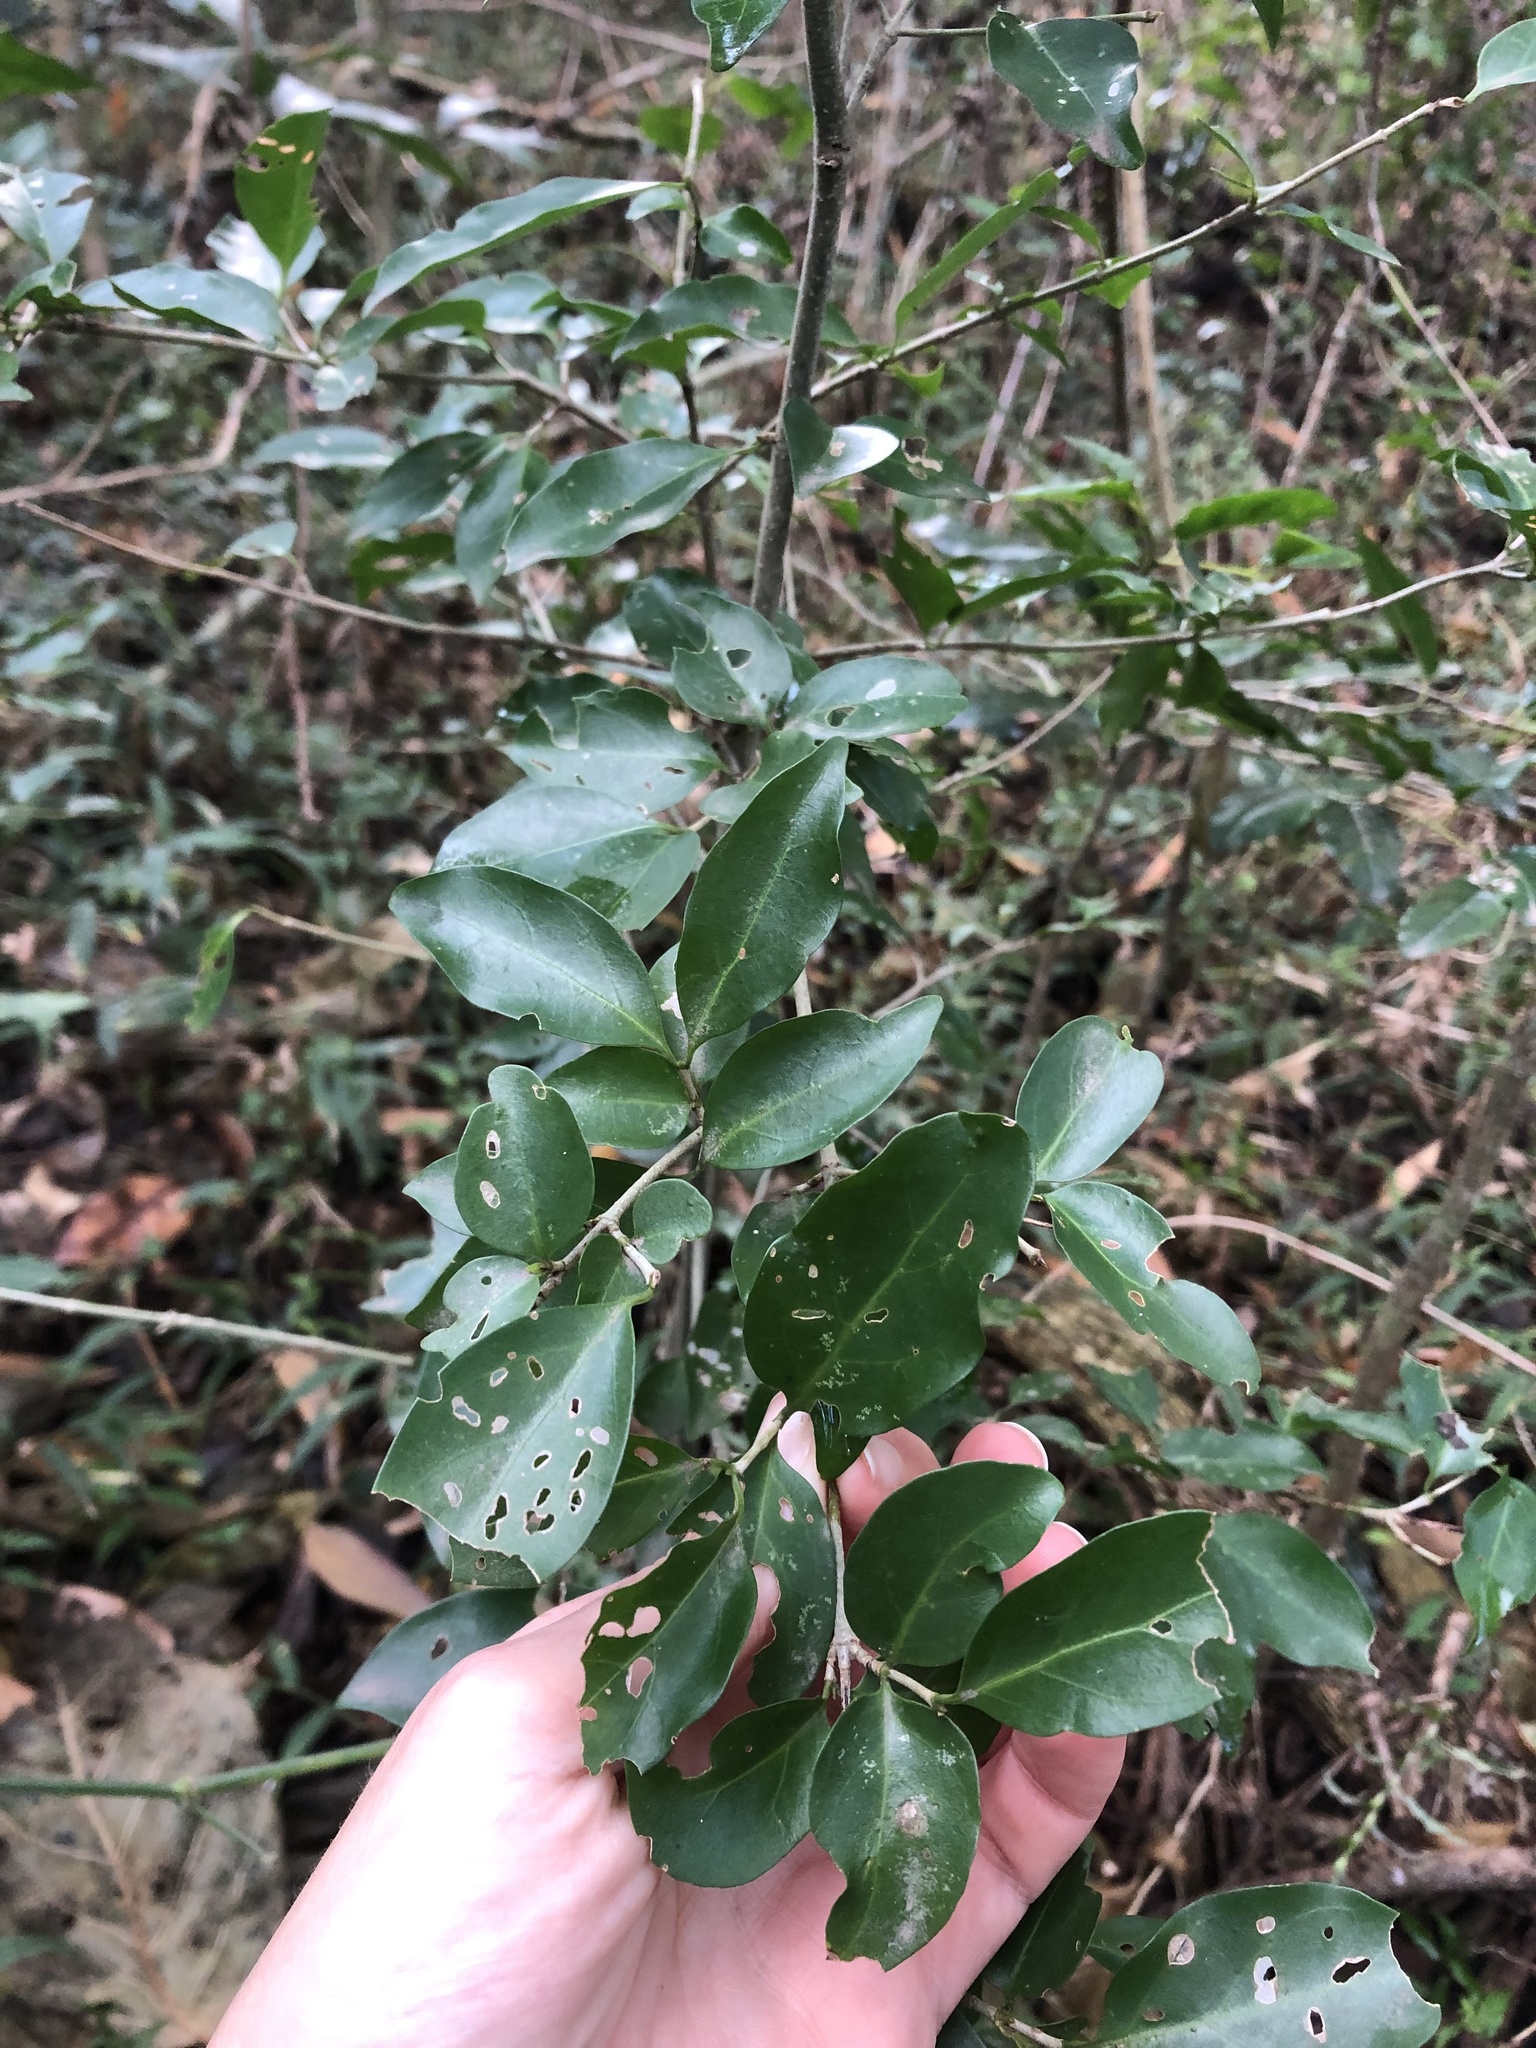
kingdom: Plantae
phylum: Tracheophyta
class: Magnoliopsida
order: Gentianales
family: Rubiaceae
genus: Canthium
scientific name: Canthium inerme
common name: Unarmed turkey-berry
